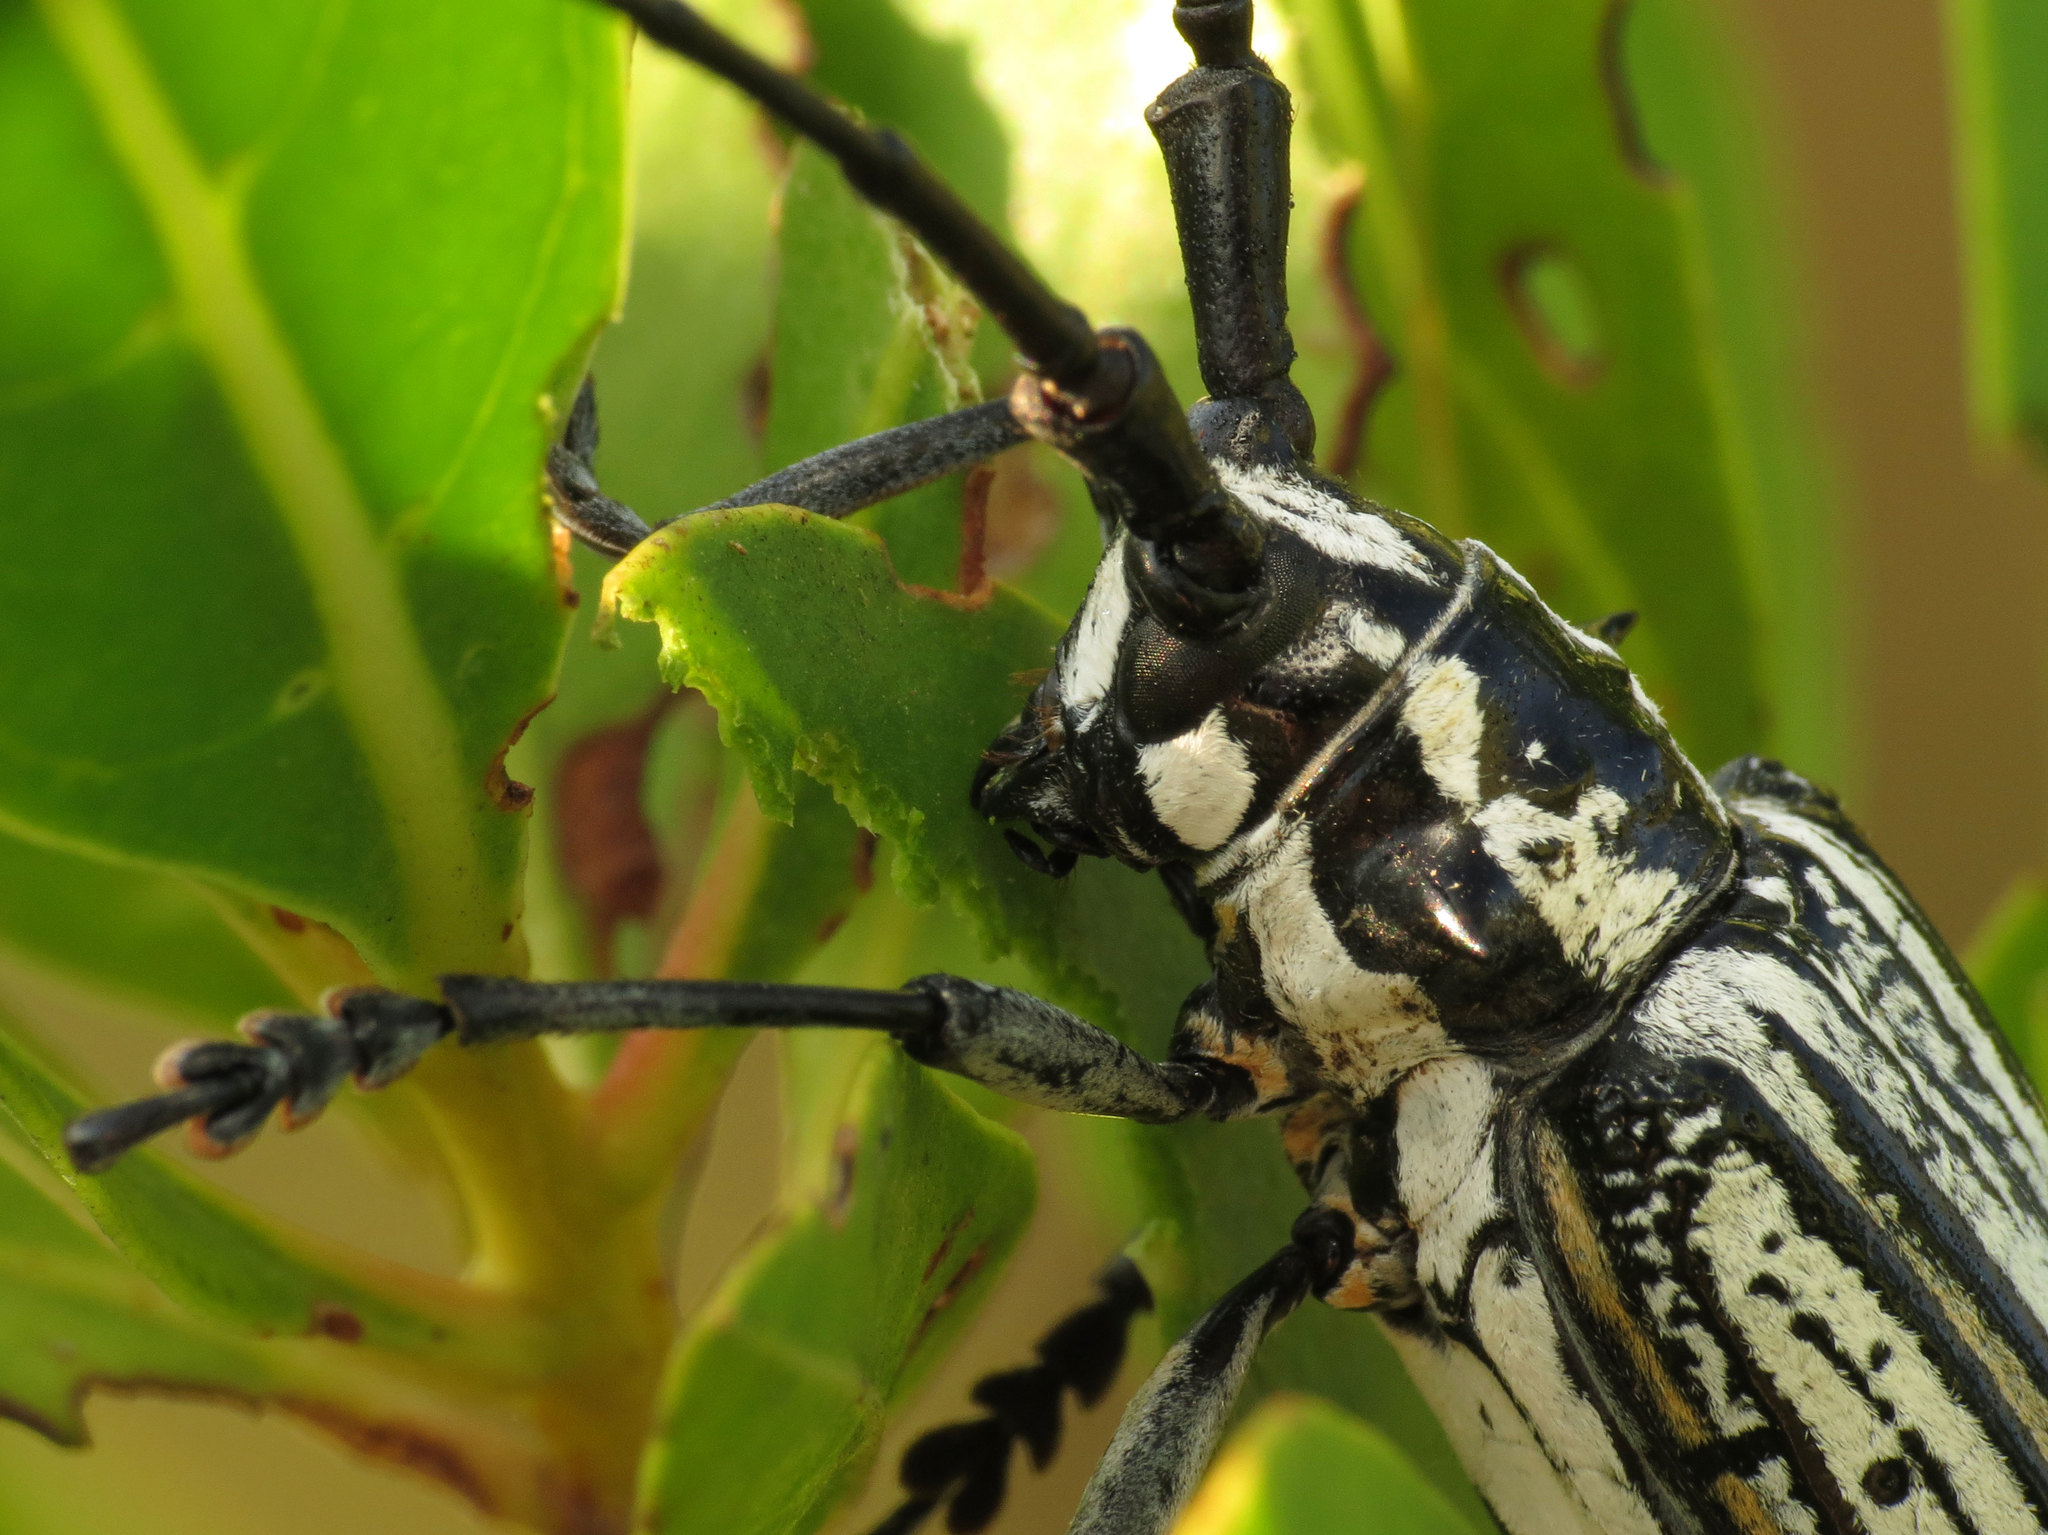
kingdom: Animalia
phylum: Arthropoda
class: Insecta
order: Coleoptera
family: Cerambycidae
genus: Deliathis
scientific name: Deliathis incana
